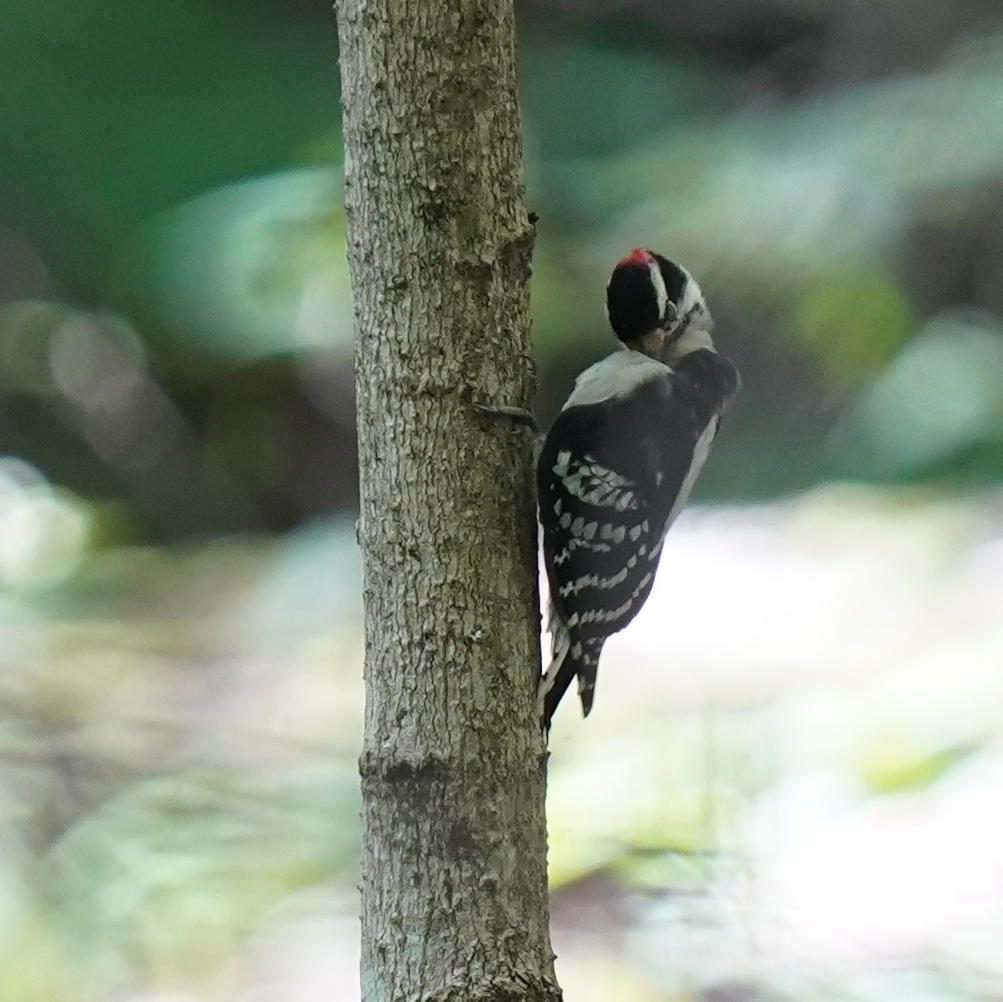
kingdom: Animalia
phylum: Chordata
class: Aves
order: Piciformes
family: Picidae
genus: Dryobates
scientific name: Dryobates pubescens
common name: Downy woodpecker
